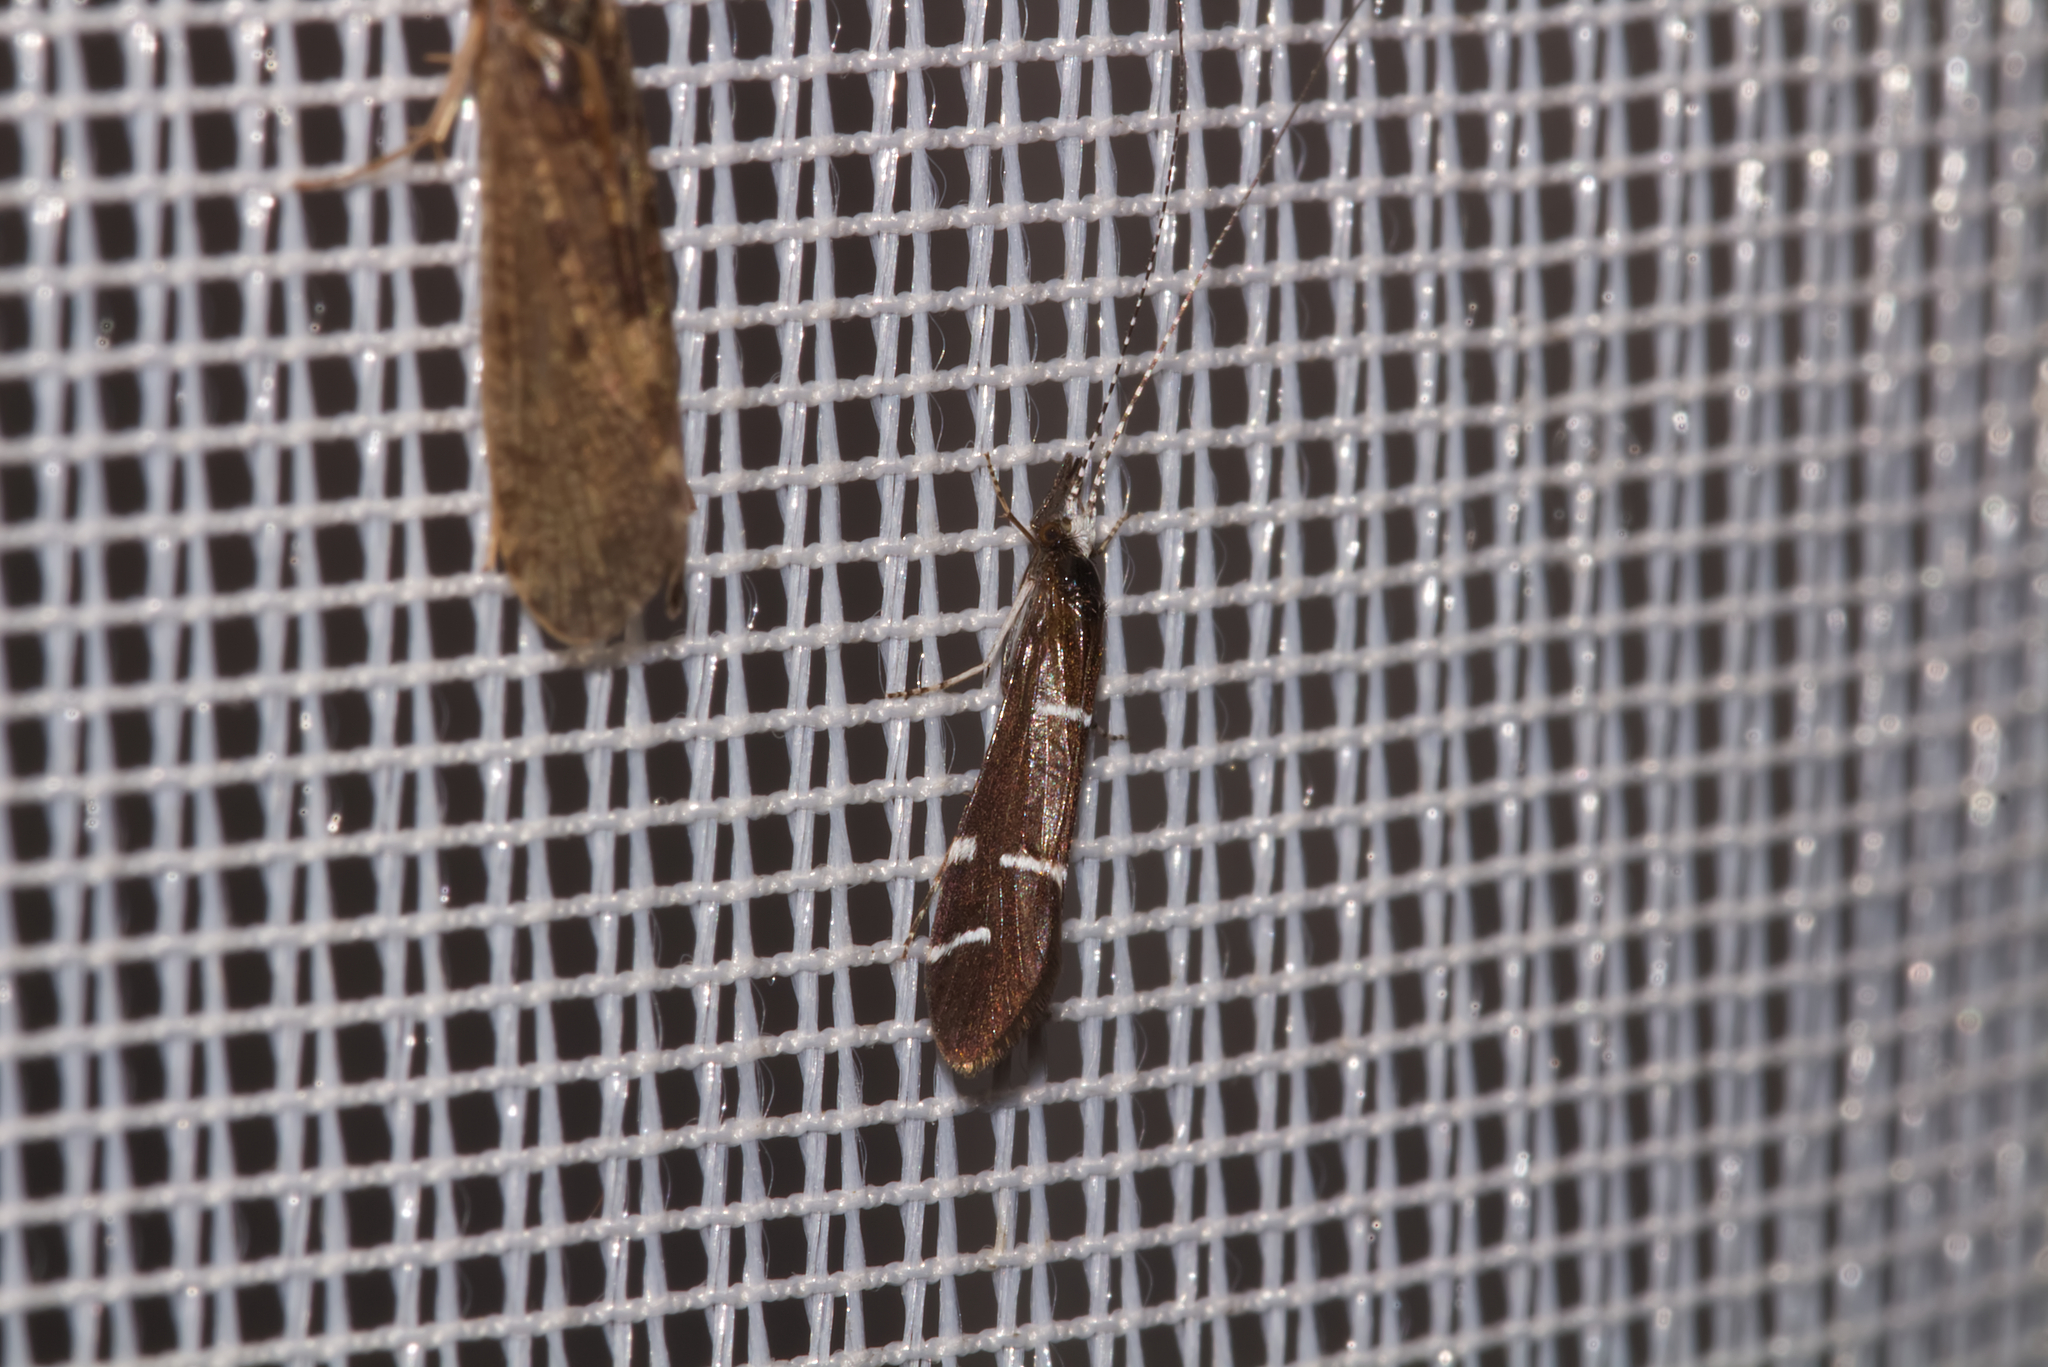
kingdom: Animalia
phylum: Arthropoda
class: Insecta
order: Trichoptera
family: Leptoceridae
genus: Athripsodes
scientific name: Athripsodes albifrons
